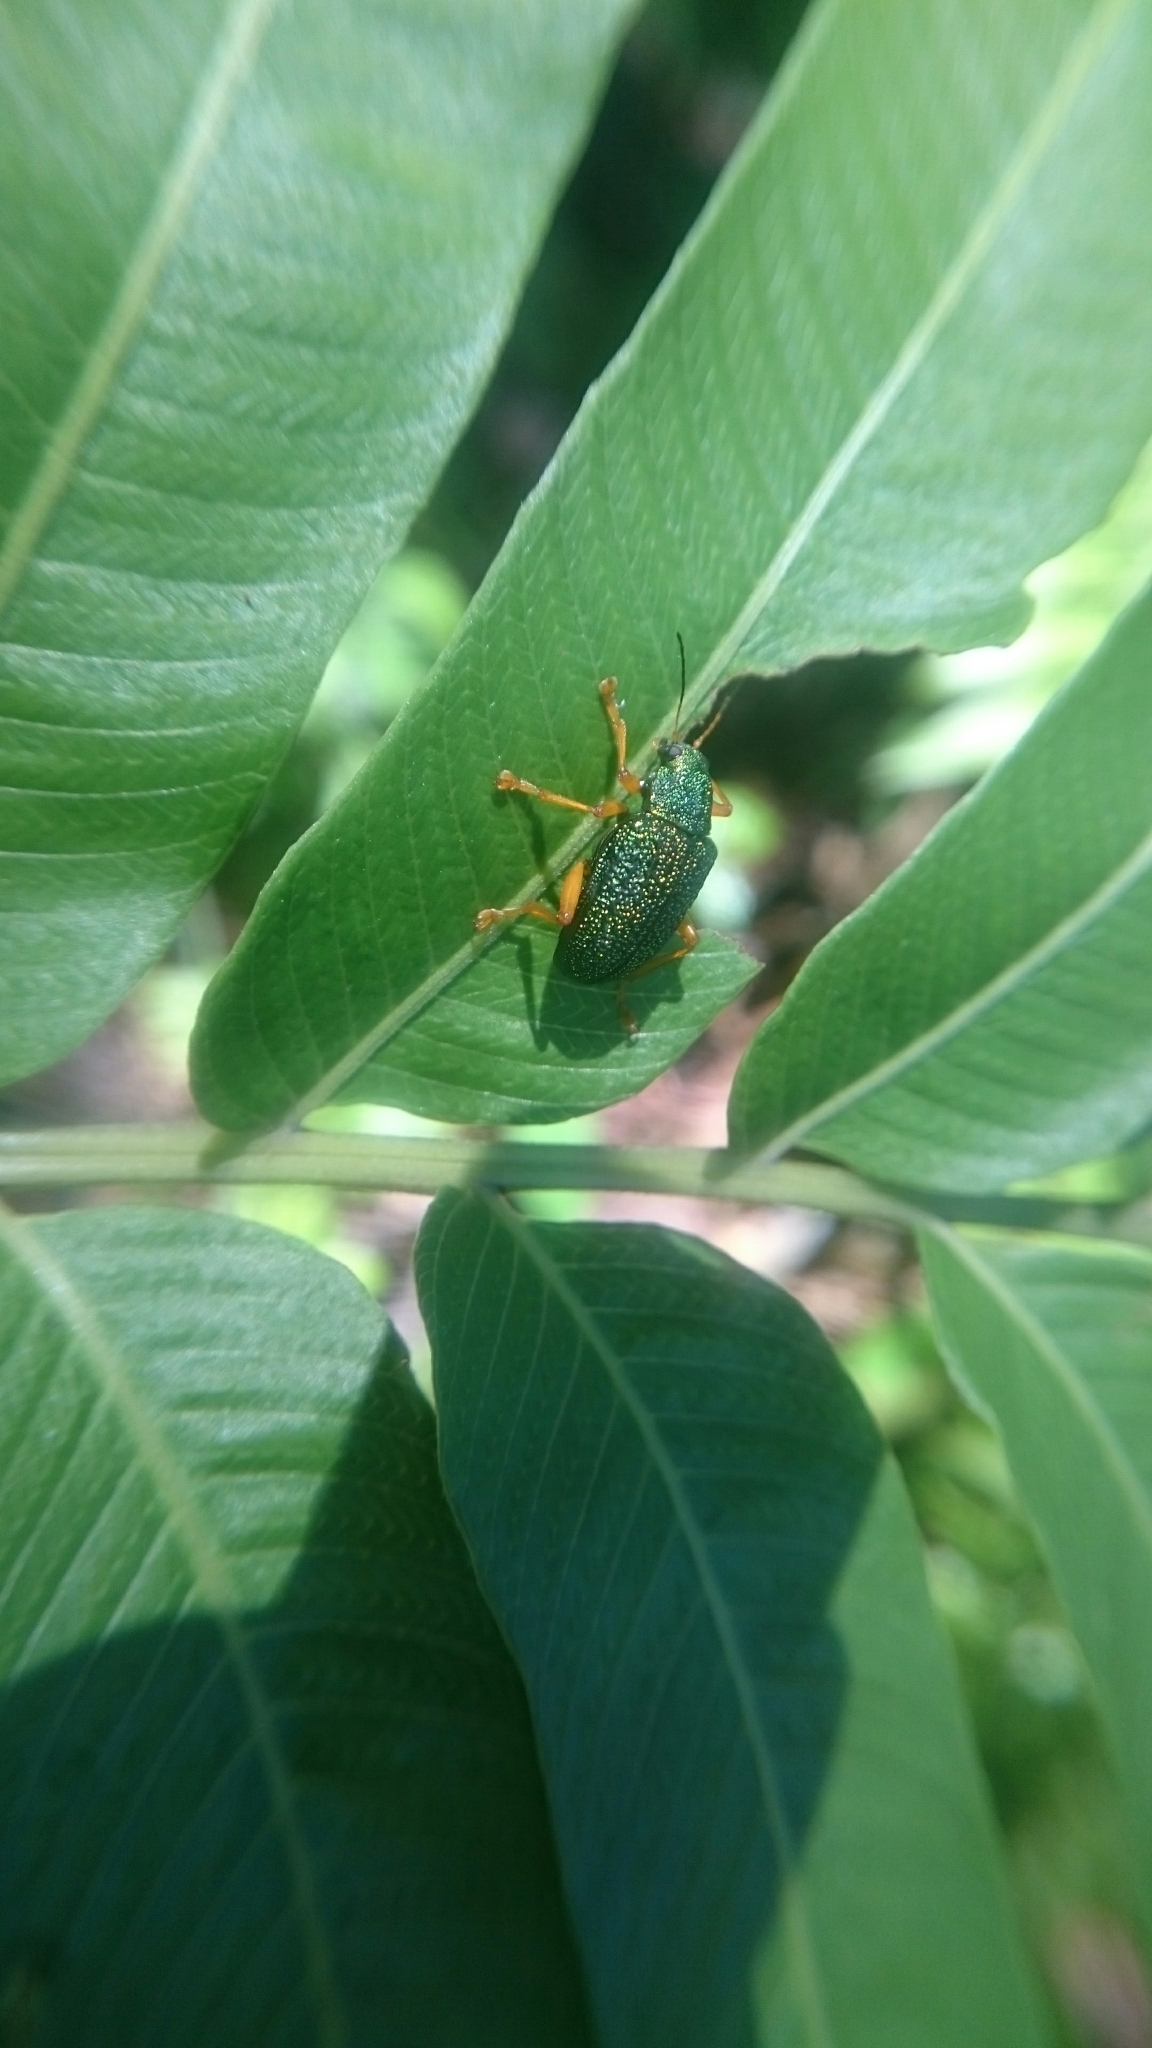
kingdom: Animalia
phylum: Arthropoda
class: Insecta
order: Coleoptera
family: Chrysomelidae
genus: Callicolaspis
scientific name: Callicolaspis
